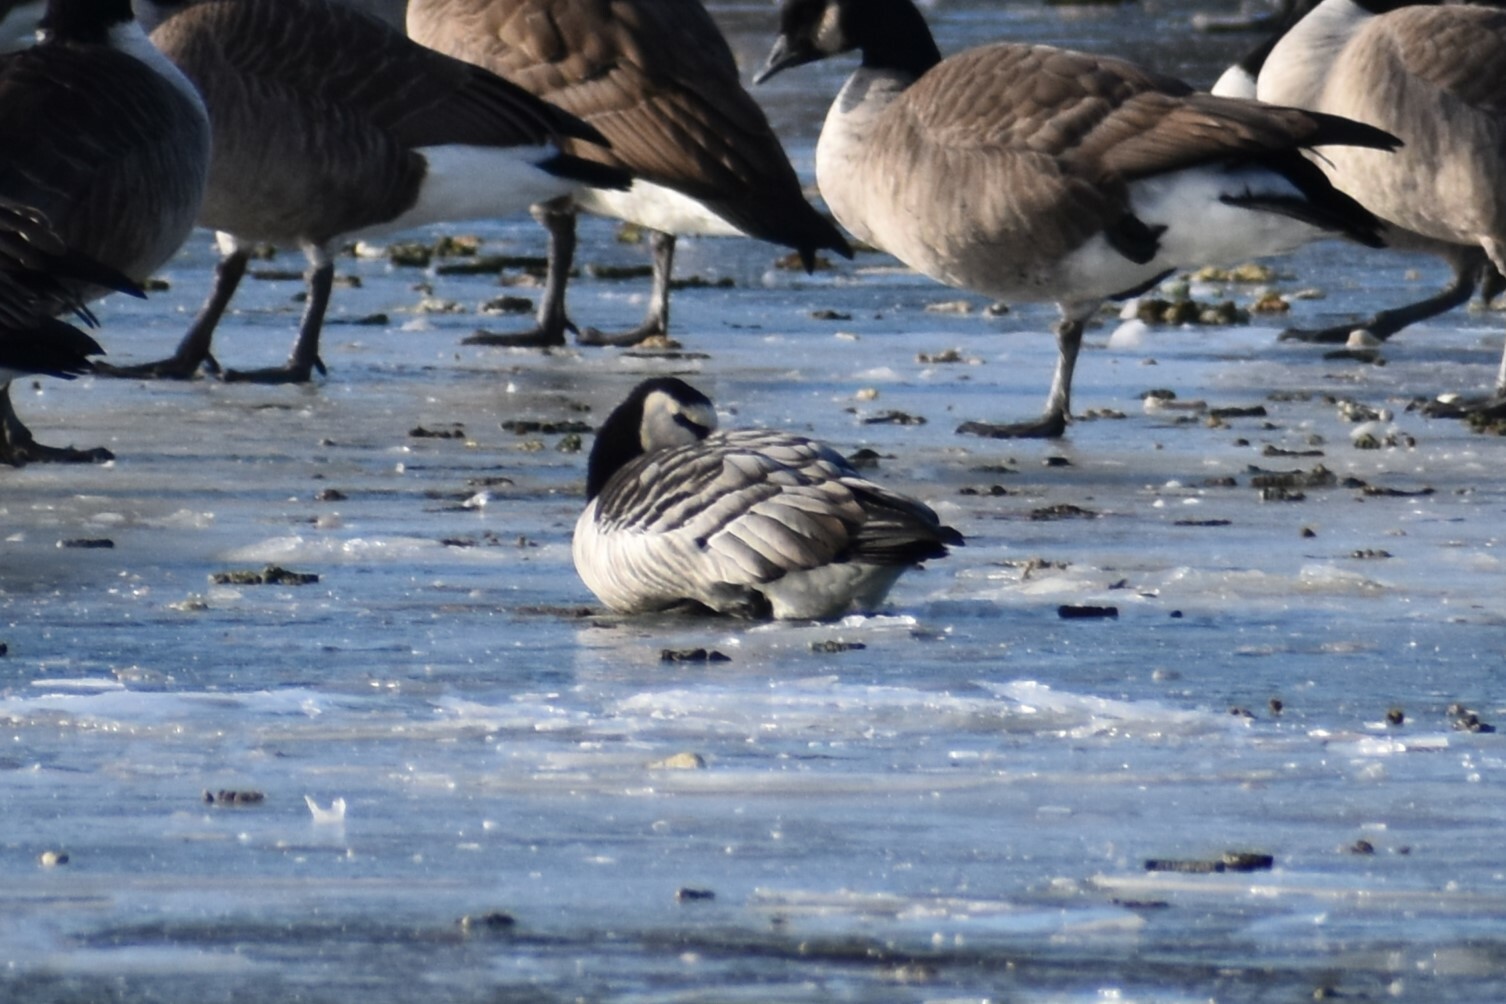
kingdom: Animalia
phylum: Chordata
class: Aves
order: Anseriformes
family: Anatidae
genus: Branta
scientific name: Branta leucopsis
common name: Barnacle goose
